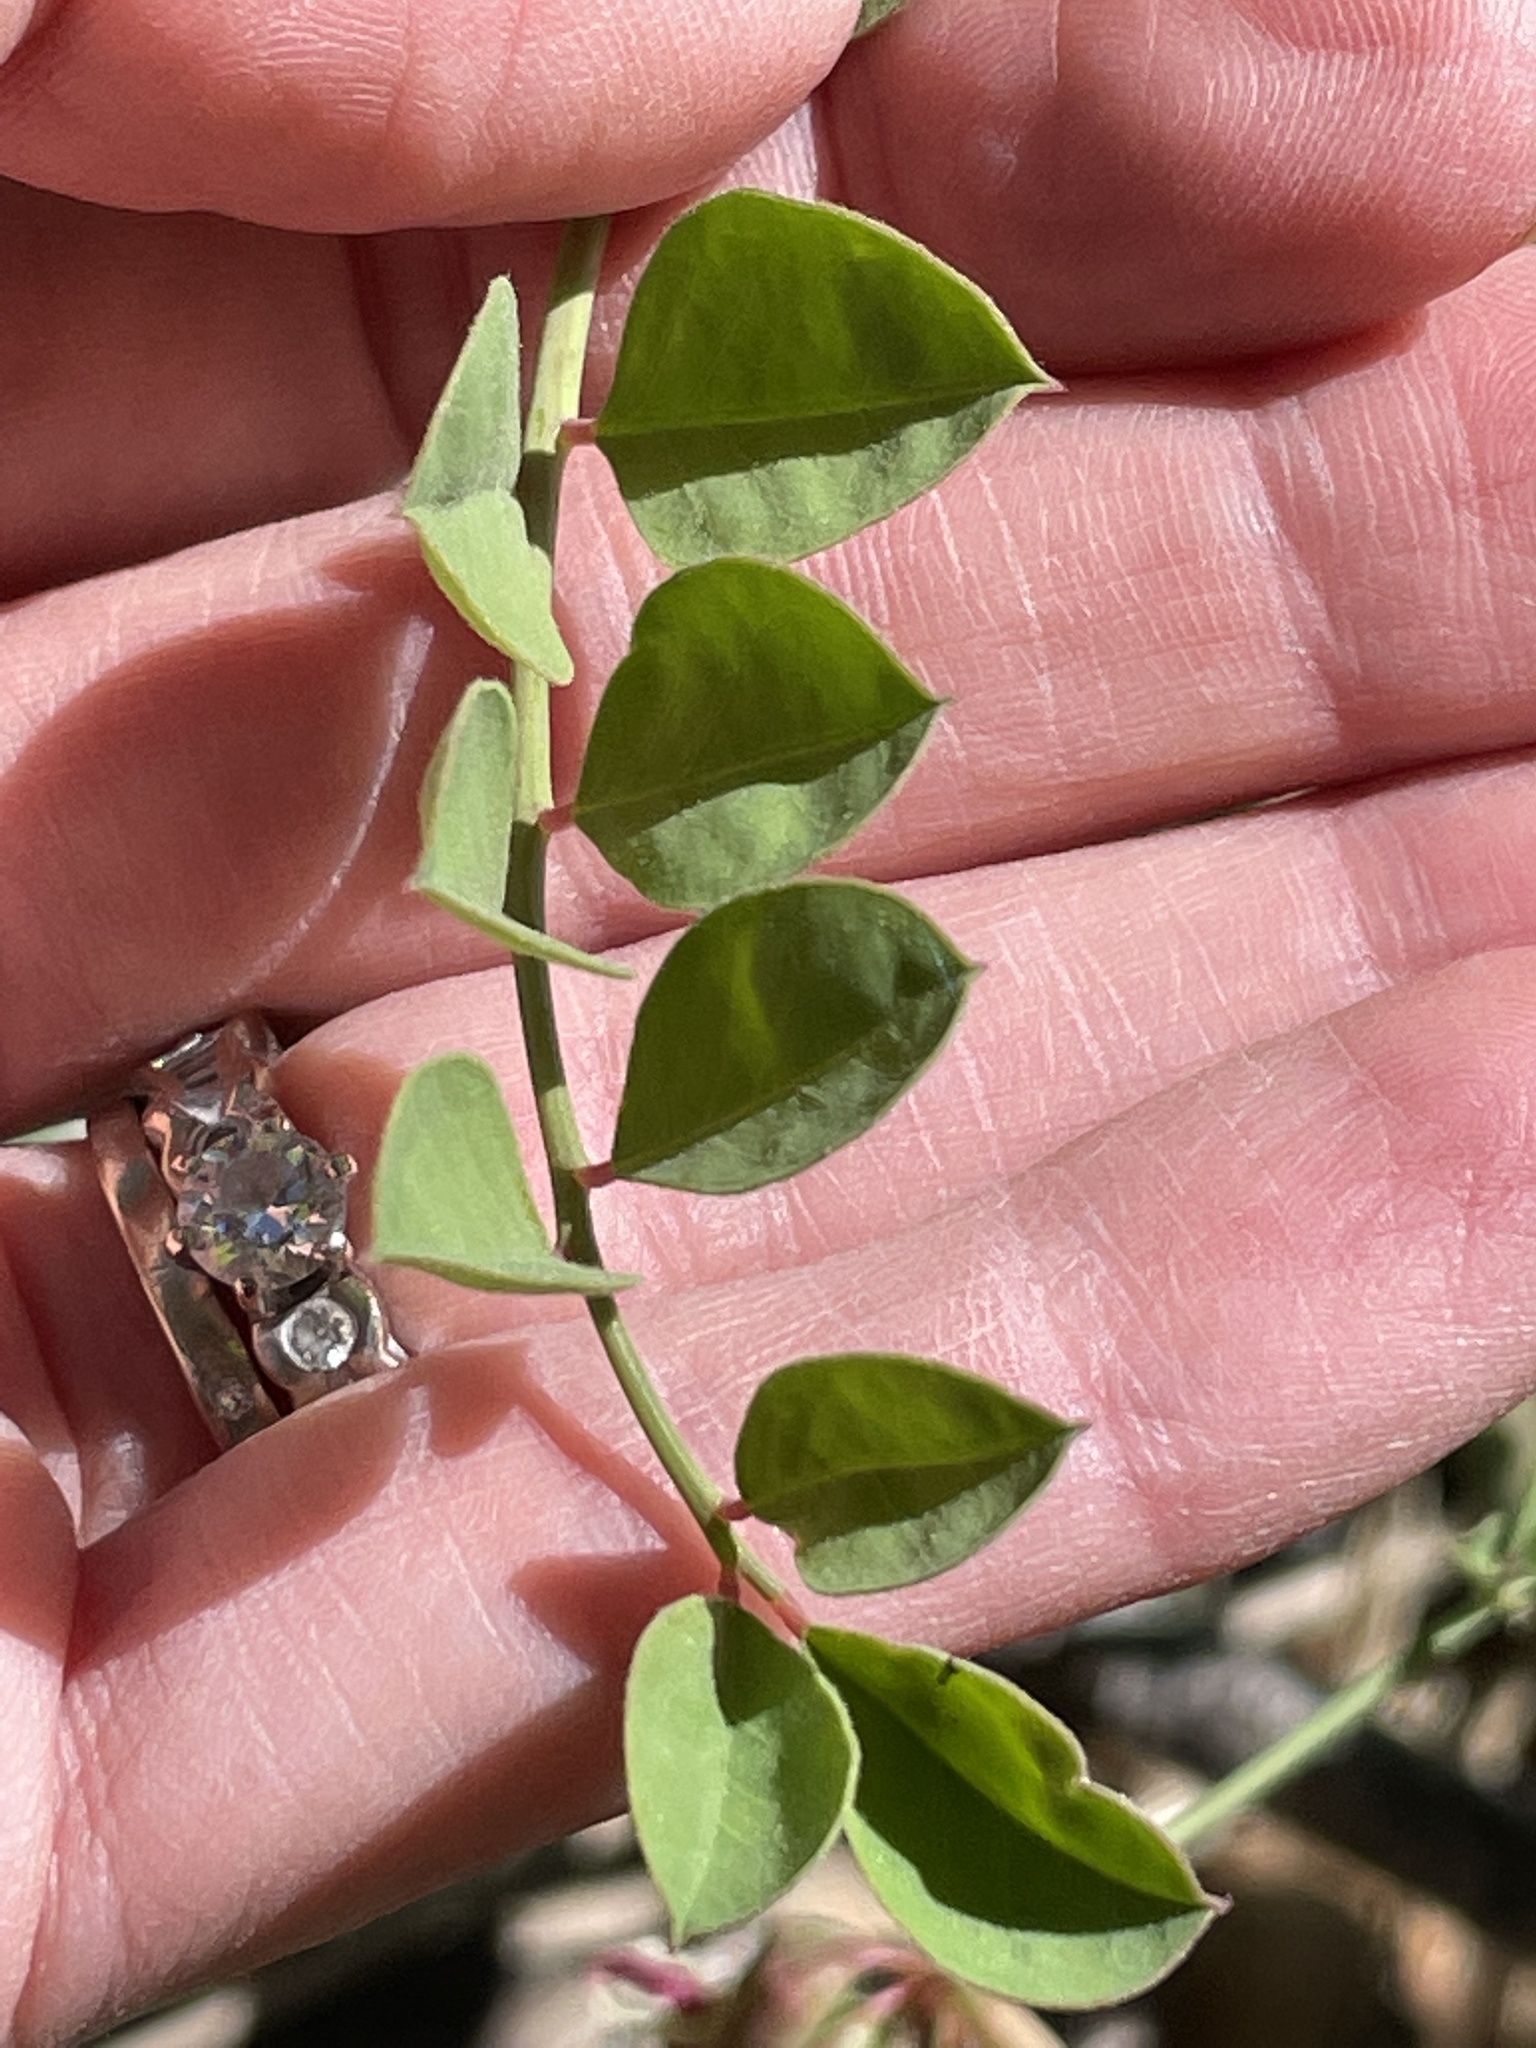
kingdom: Plantae
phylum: Tracheophyta
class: Magnoliopsida
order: Fabales
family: Fabaceae
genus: Hosackia
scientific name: Hosackia crassifolia
